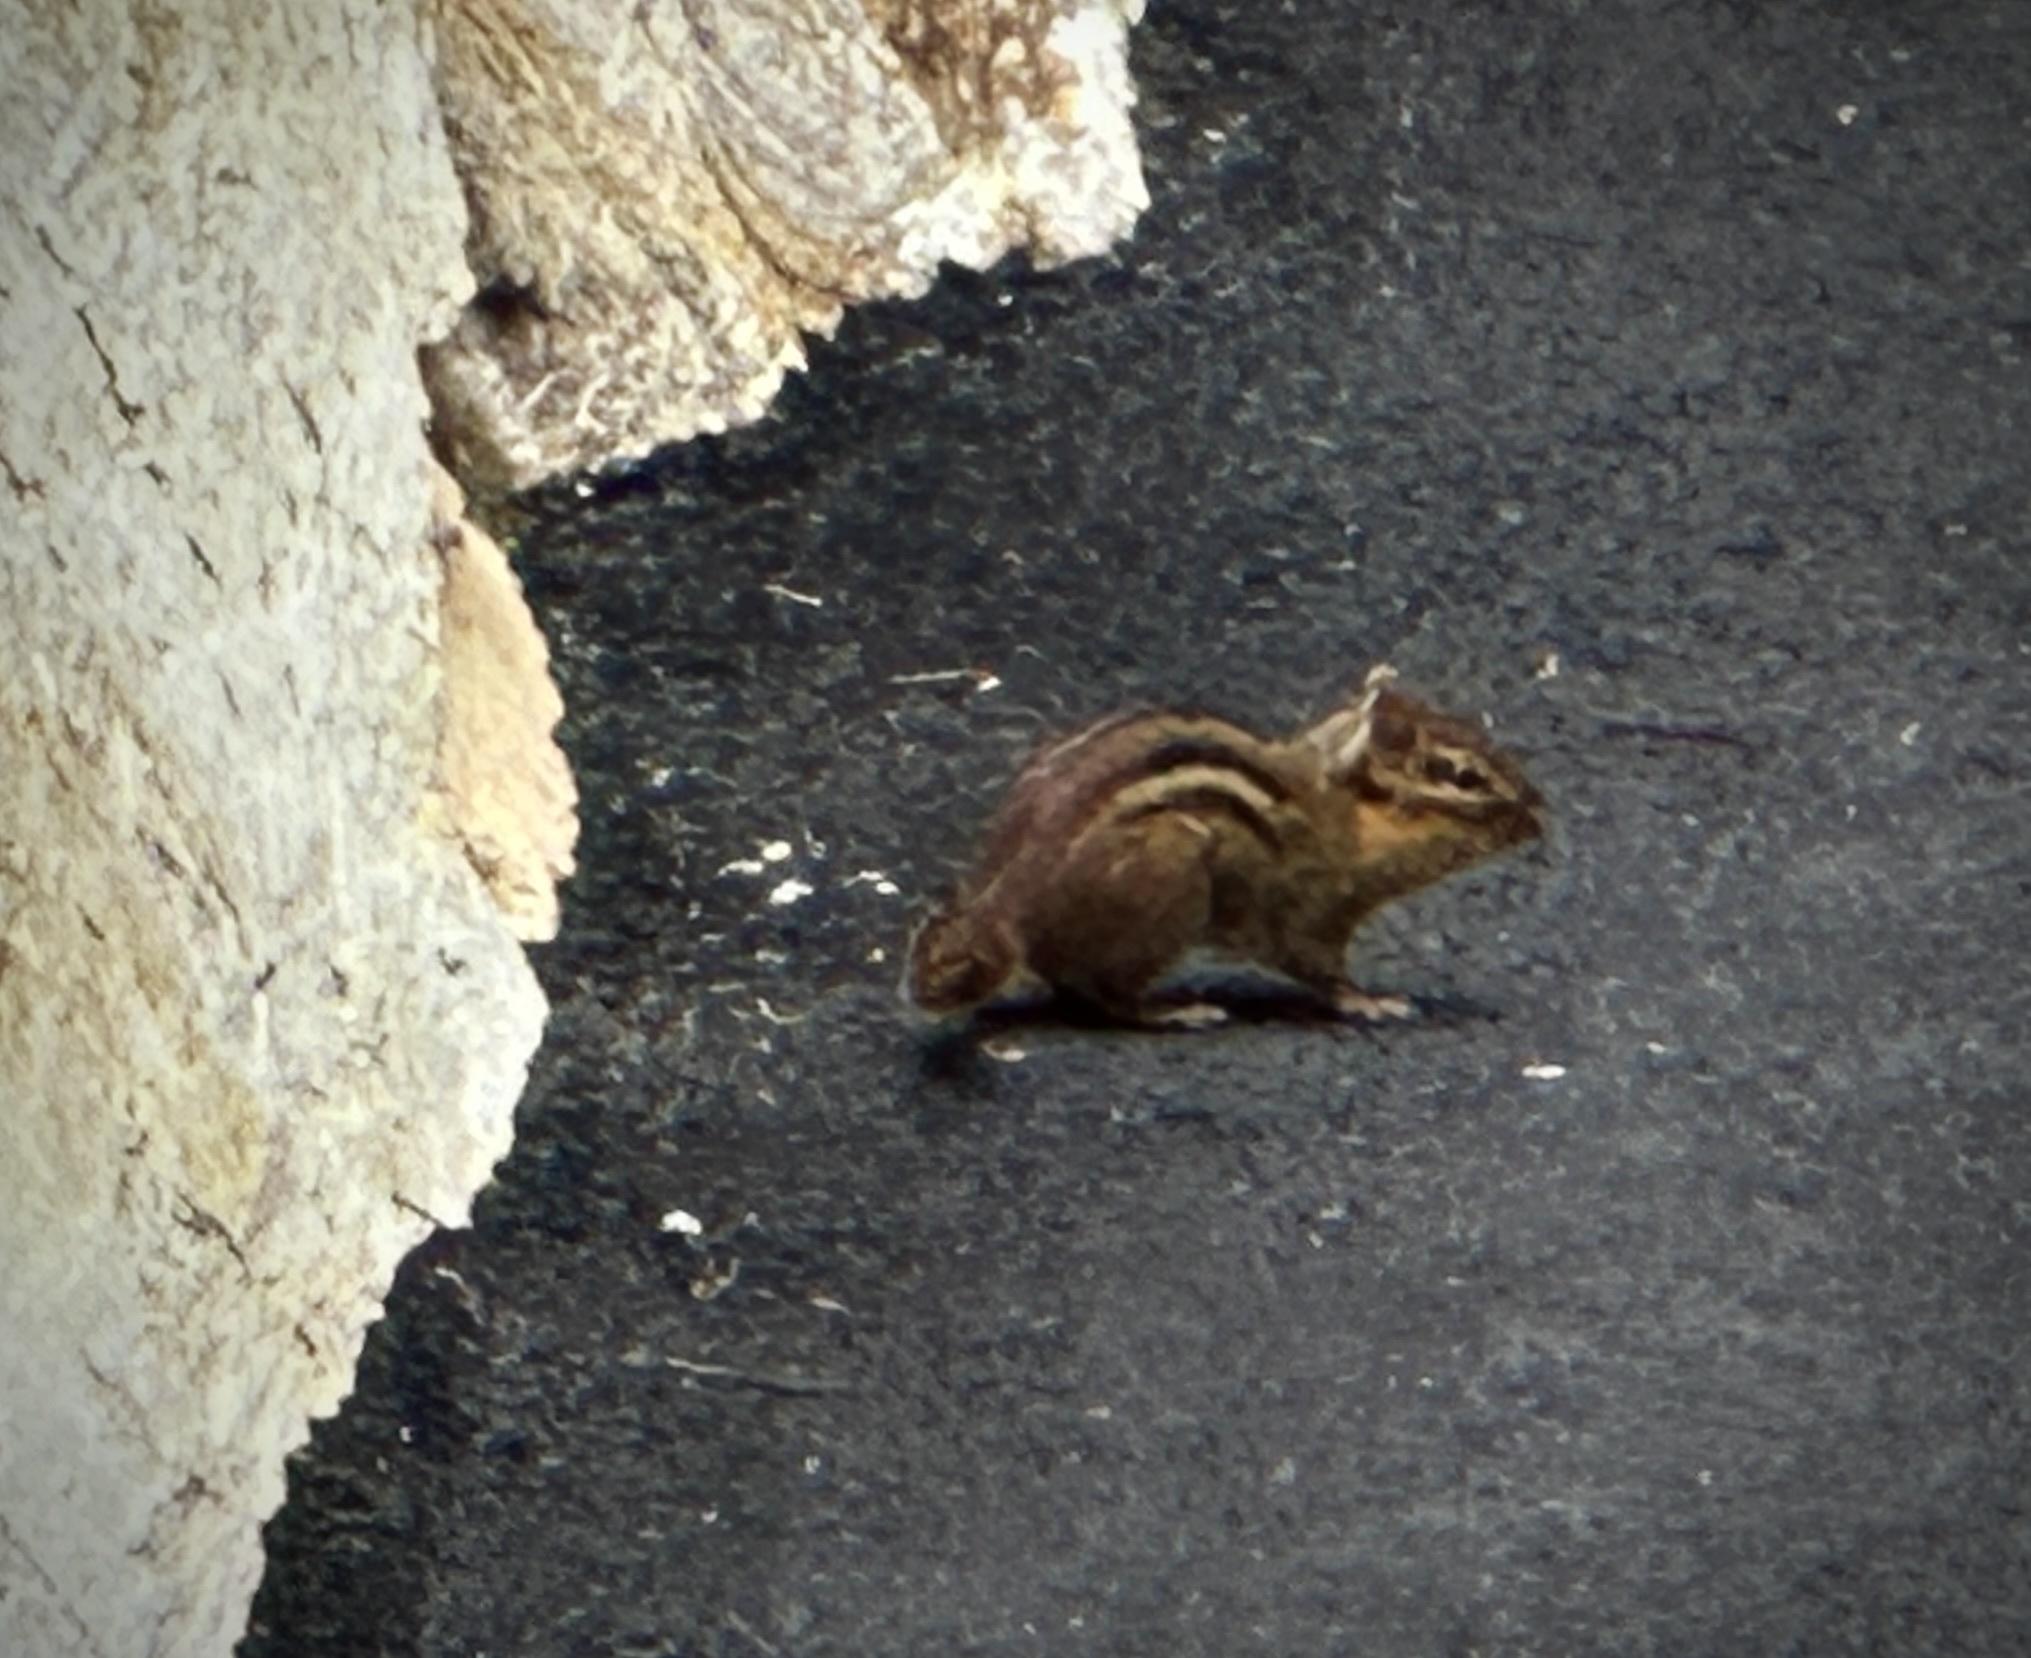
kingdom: Animalia
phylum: Chordata
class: Mammalia
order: Rodentia
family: Sciuridae
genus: Tamias
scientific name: Tamias striatus
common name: Eastern chipmunk
